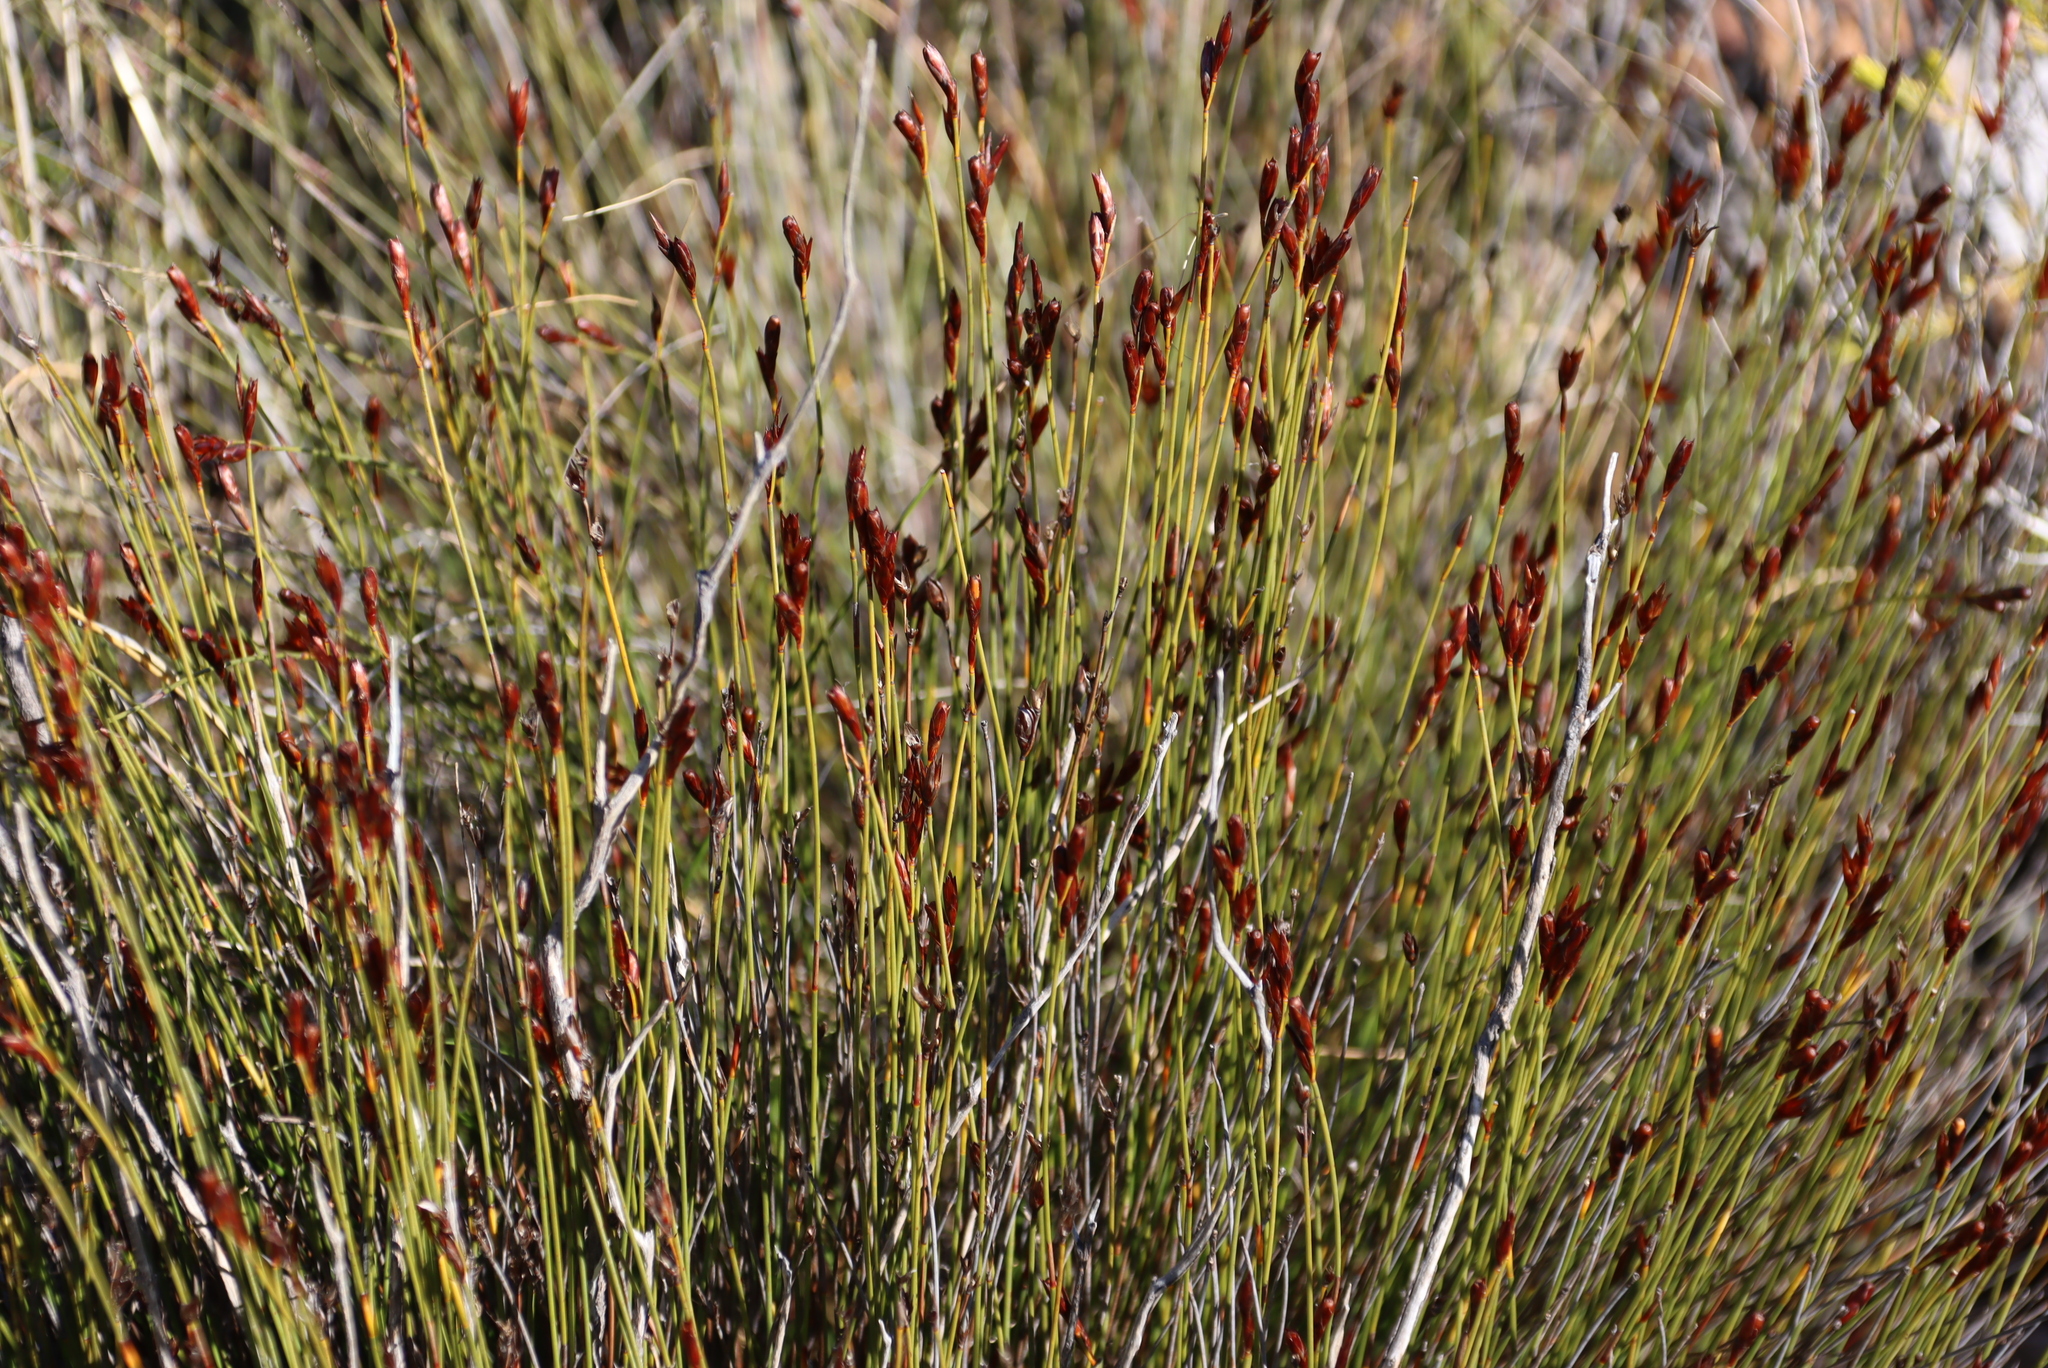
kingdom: Plantae
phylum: Tracheophyta
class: Liliopsida
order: Poales
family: Restionaceae
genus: Hypodiscus
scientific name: Hypodiscus striatus
